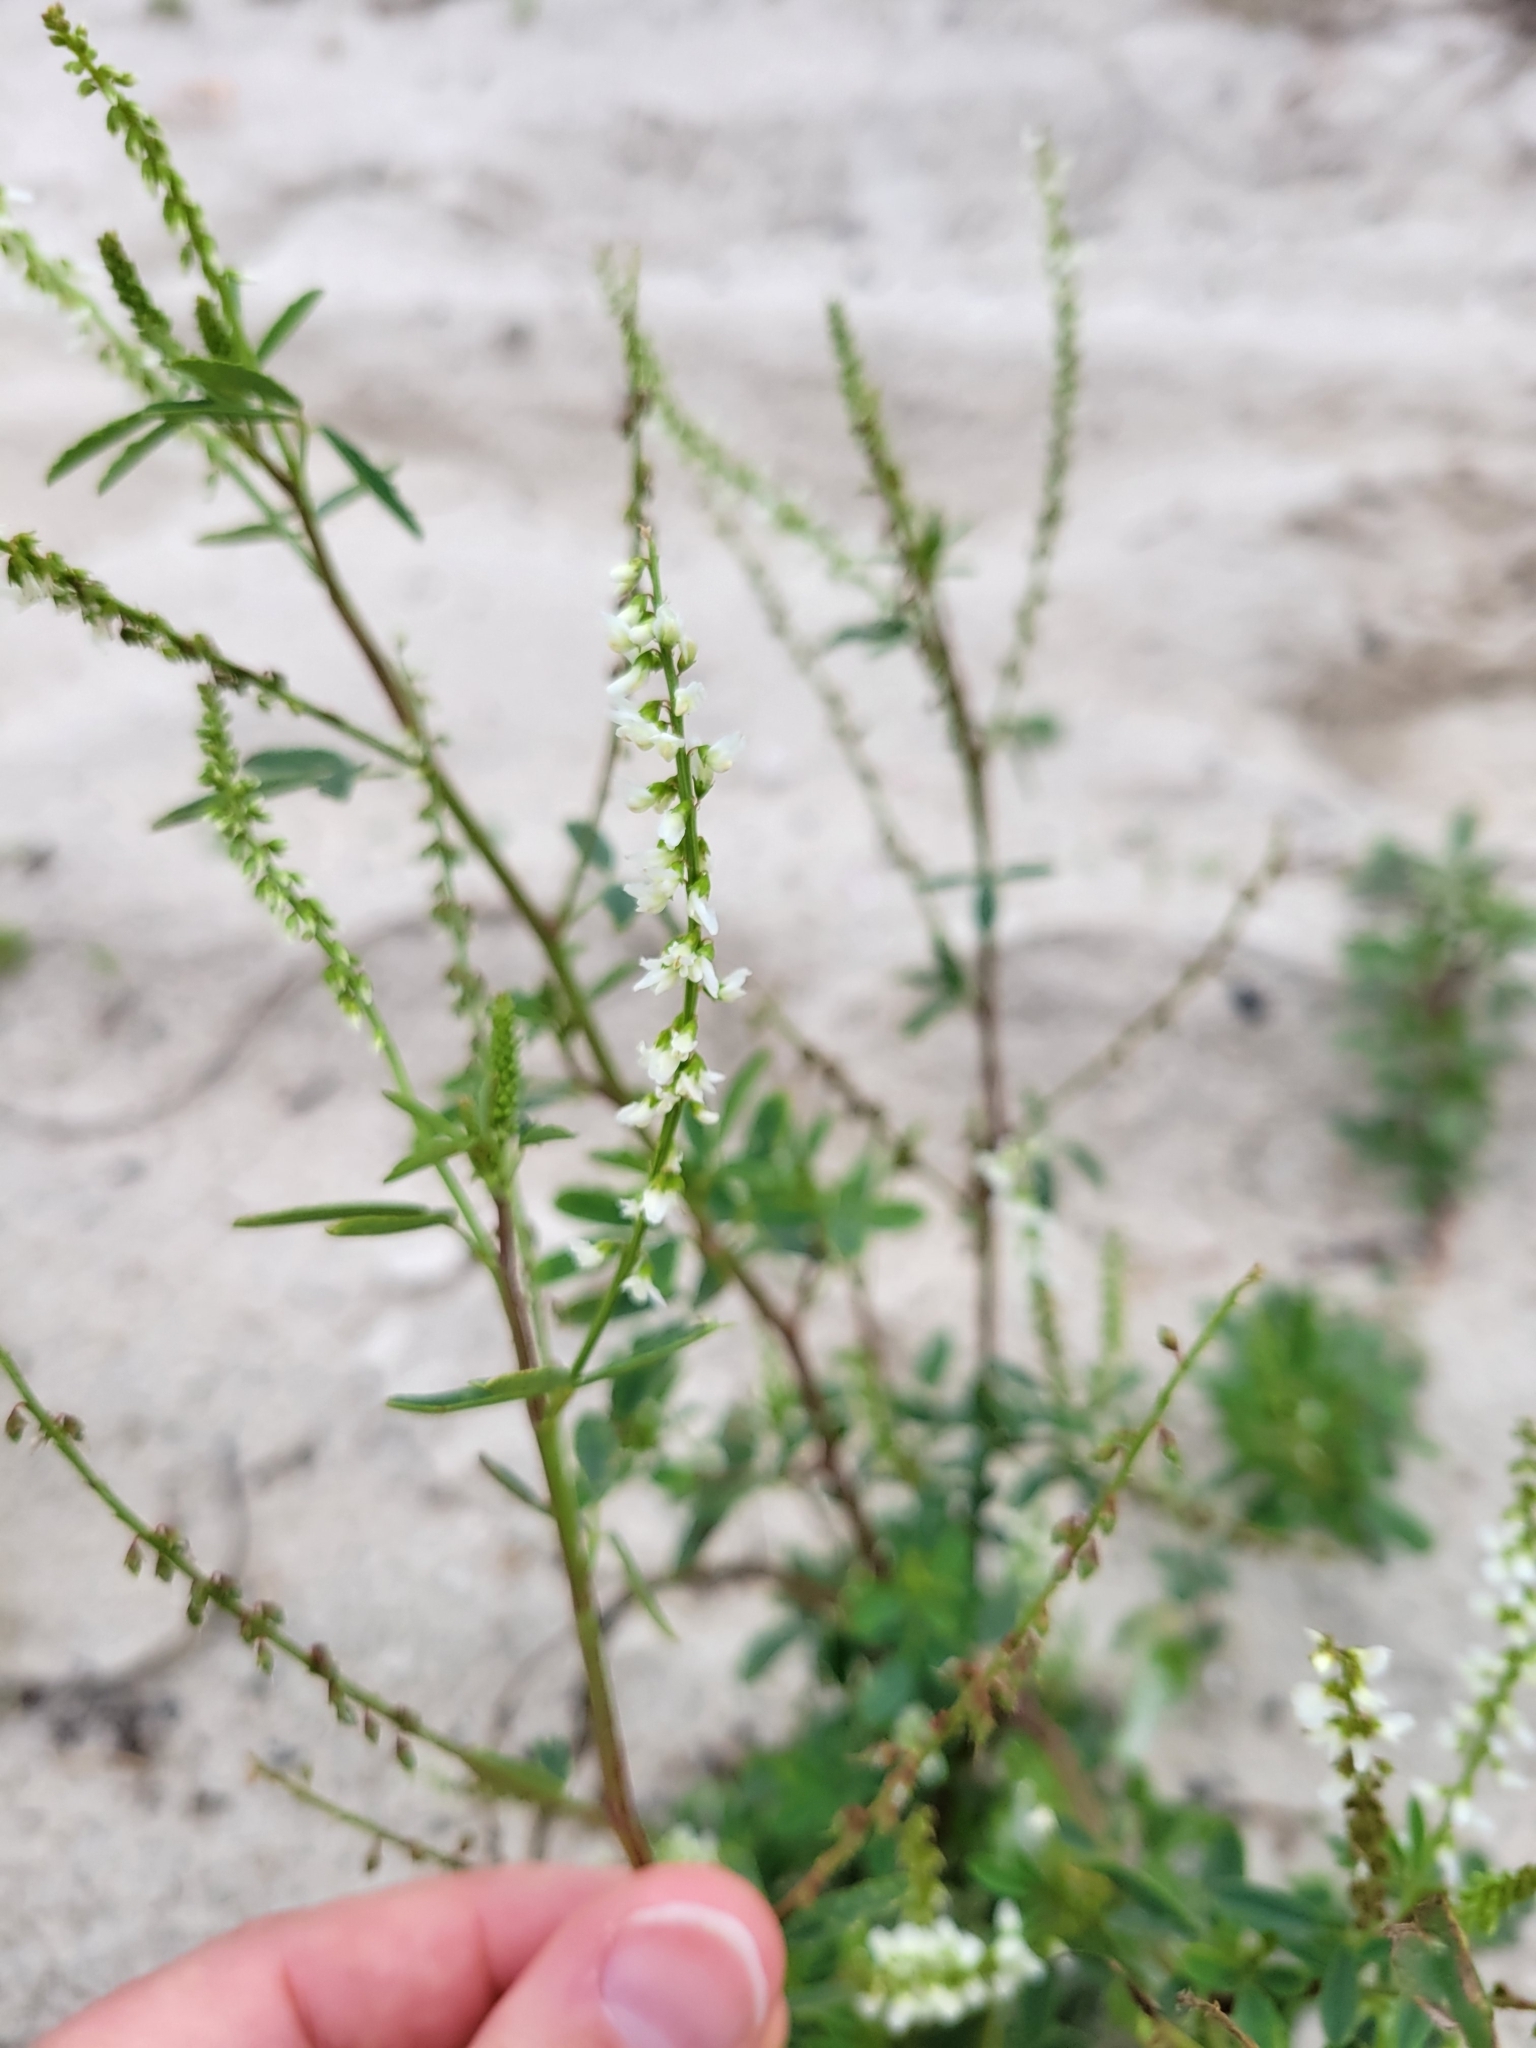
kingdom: Plantae
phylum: Tracheophyta
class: Magnoliopsida
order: Fabales
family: Fabaceae
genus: Melilotus
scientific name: Melilotus albus
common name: White melilot
